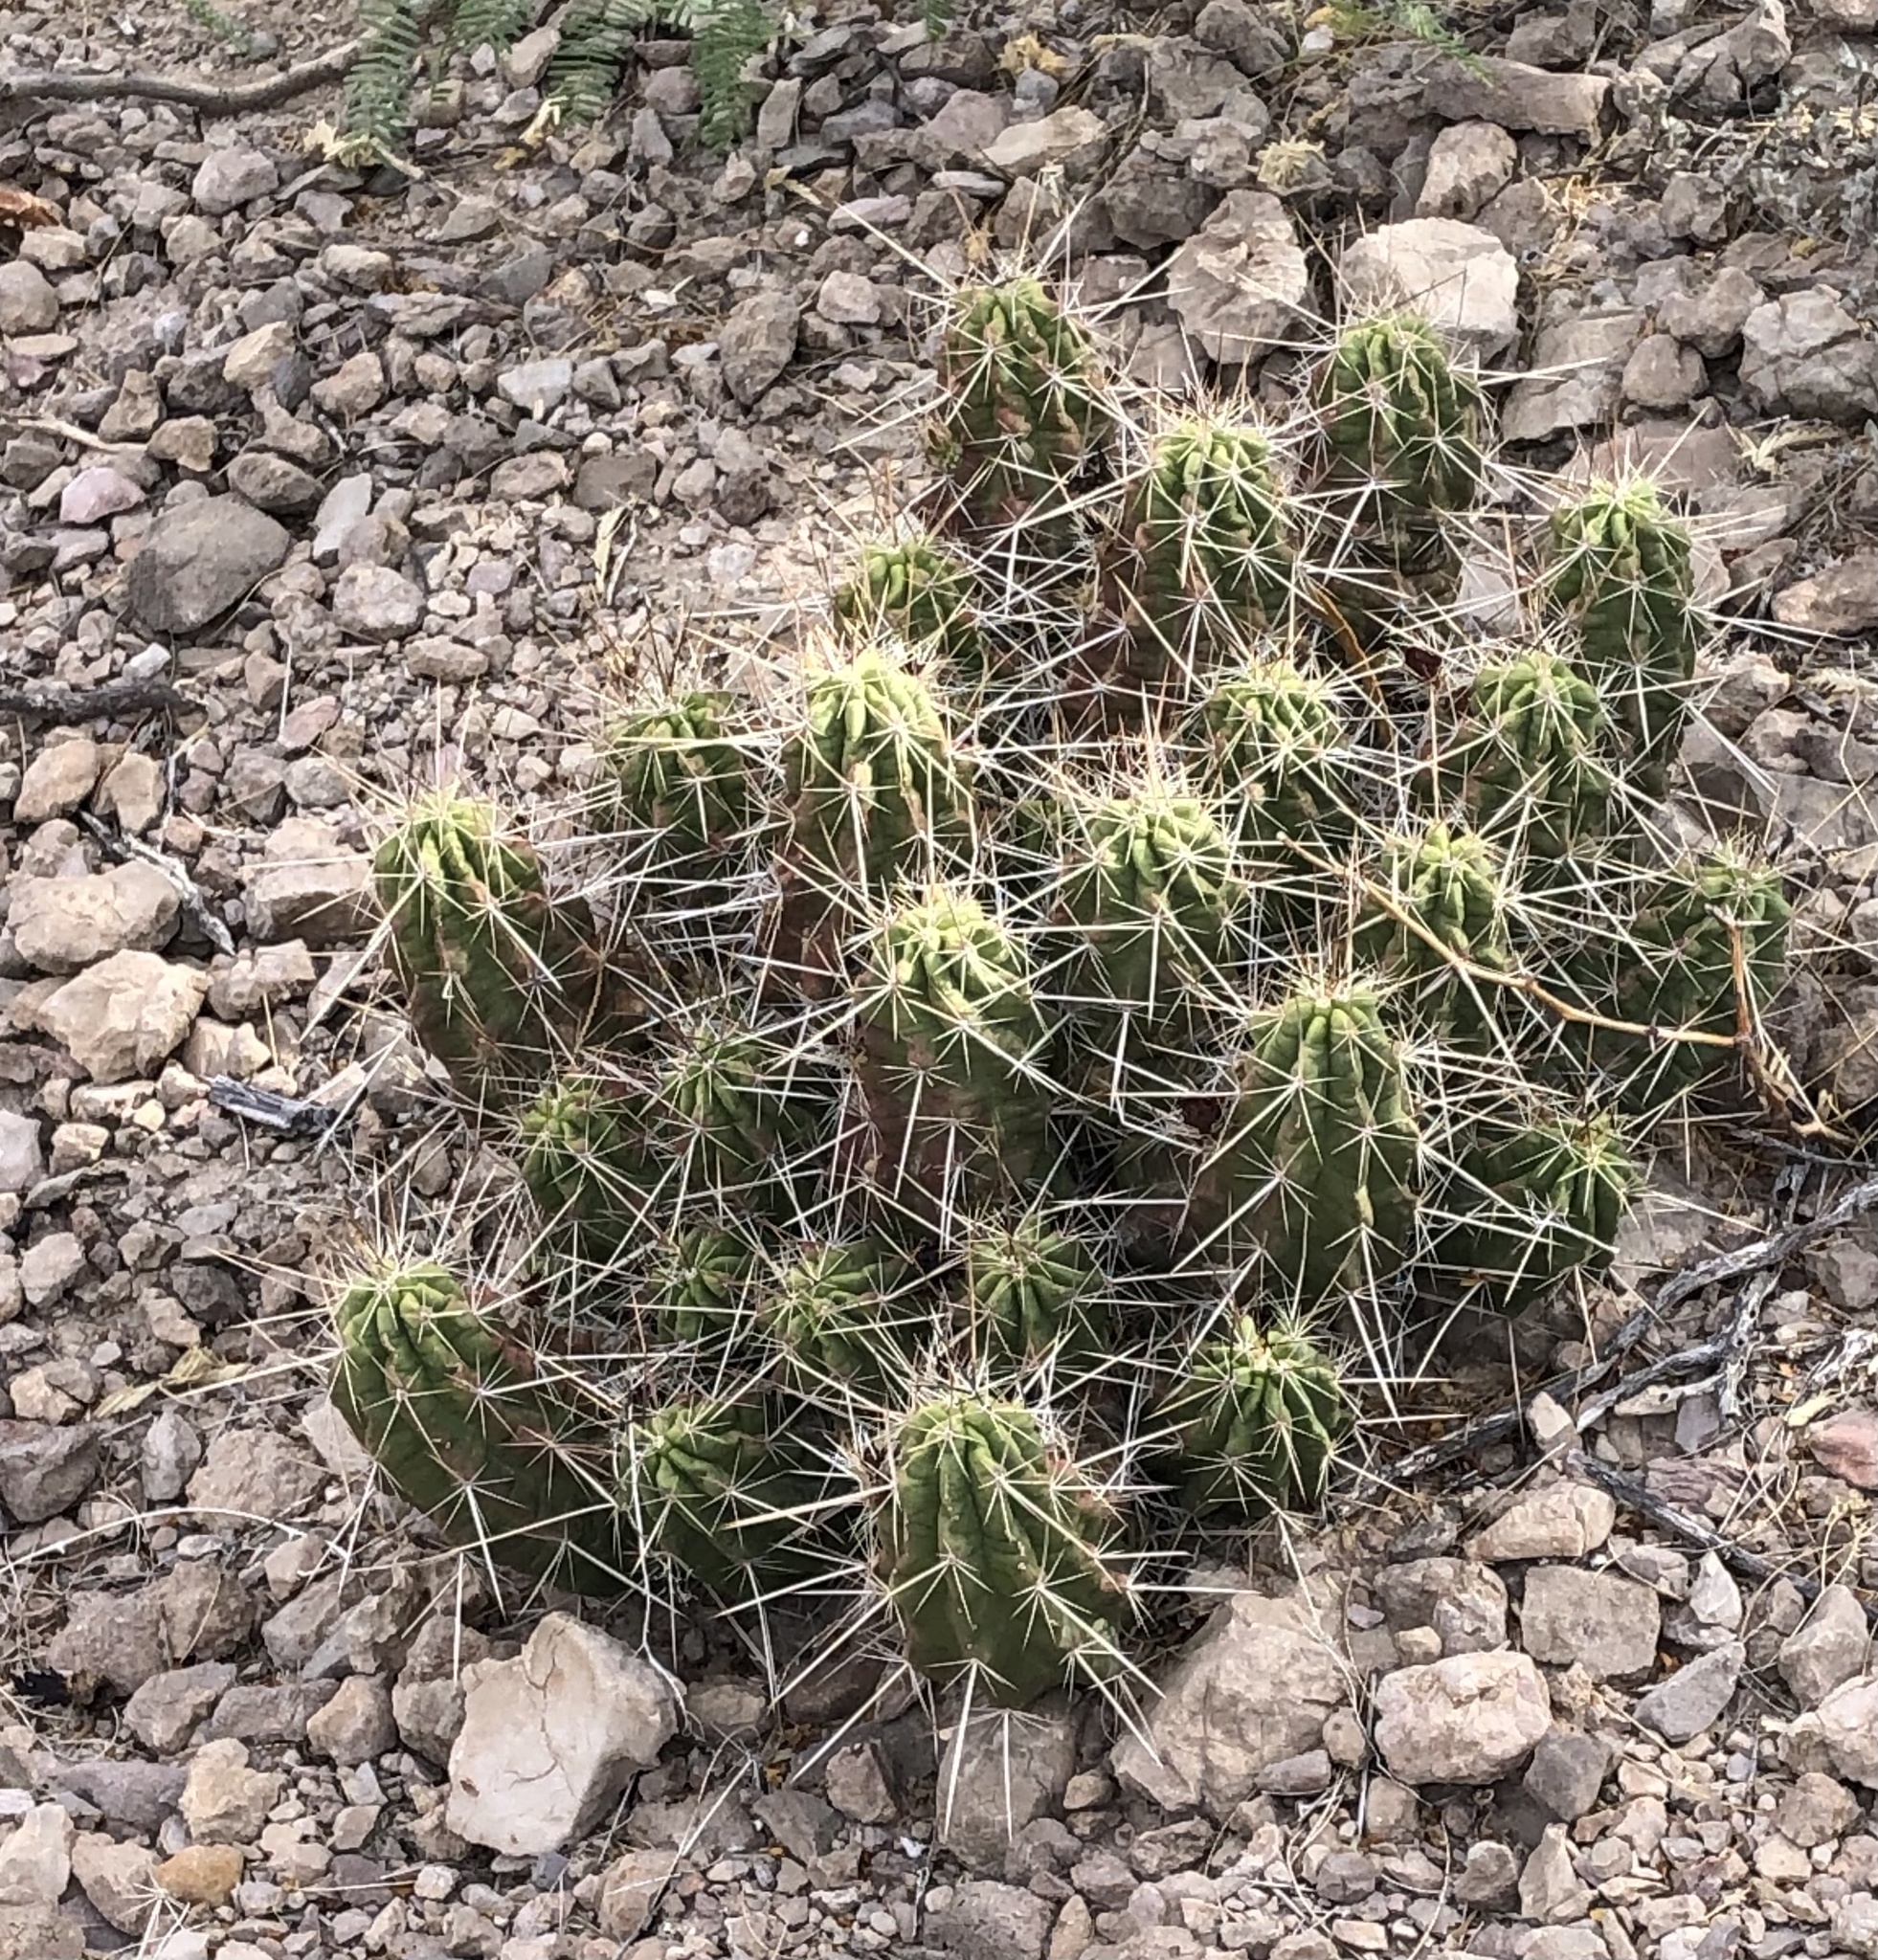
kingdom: Plantae
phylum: Tracheophyta
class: Magnoliopsida
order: Caryophyllales
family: Cactaceae
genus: Echinocereus
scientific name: Echinocereus enneacanthus
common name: Pitaya
